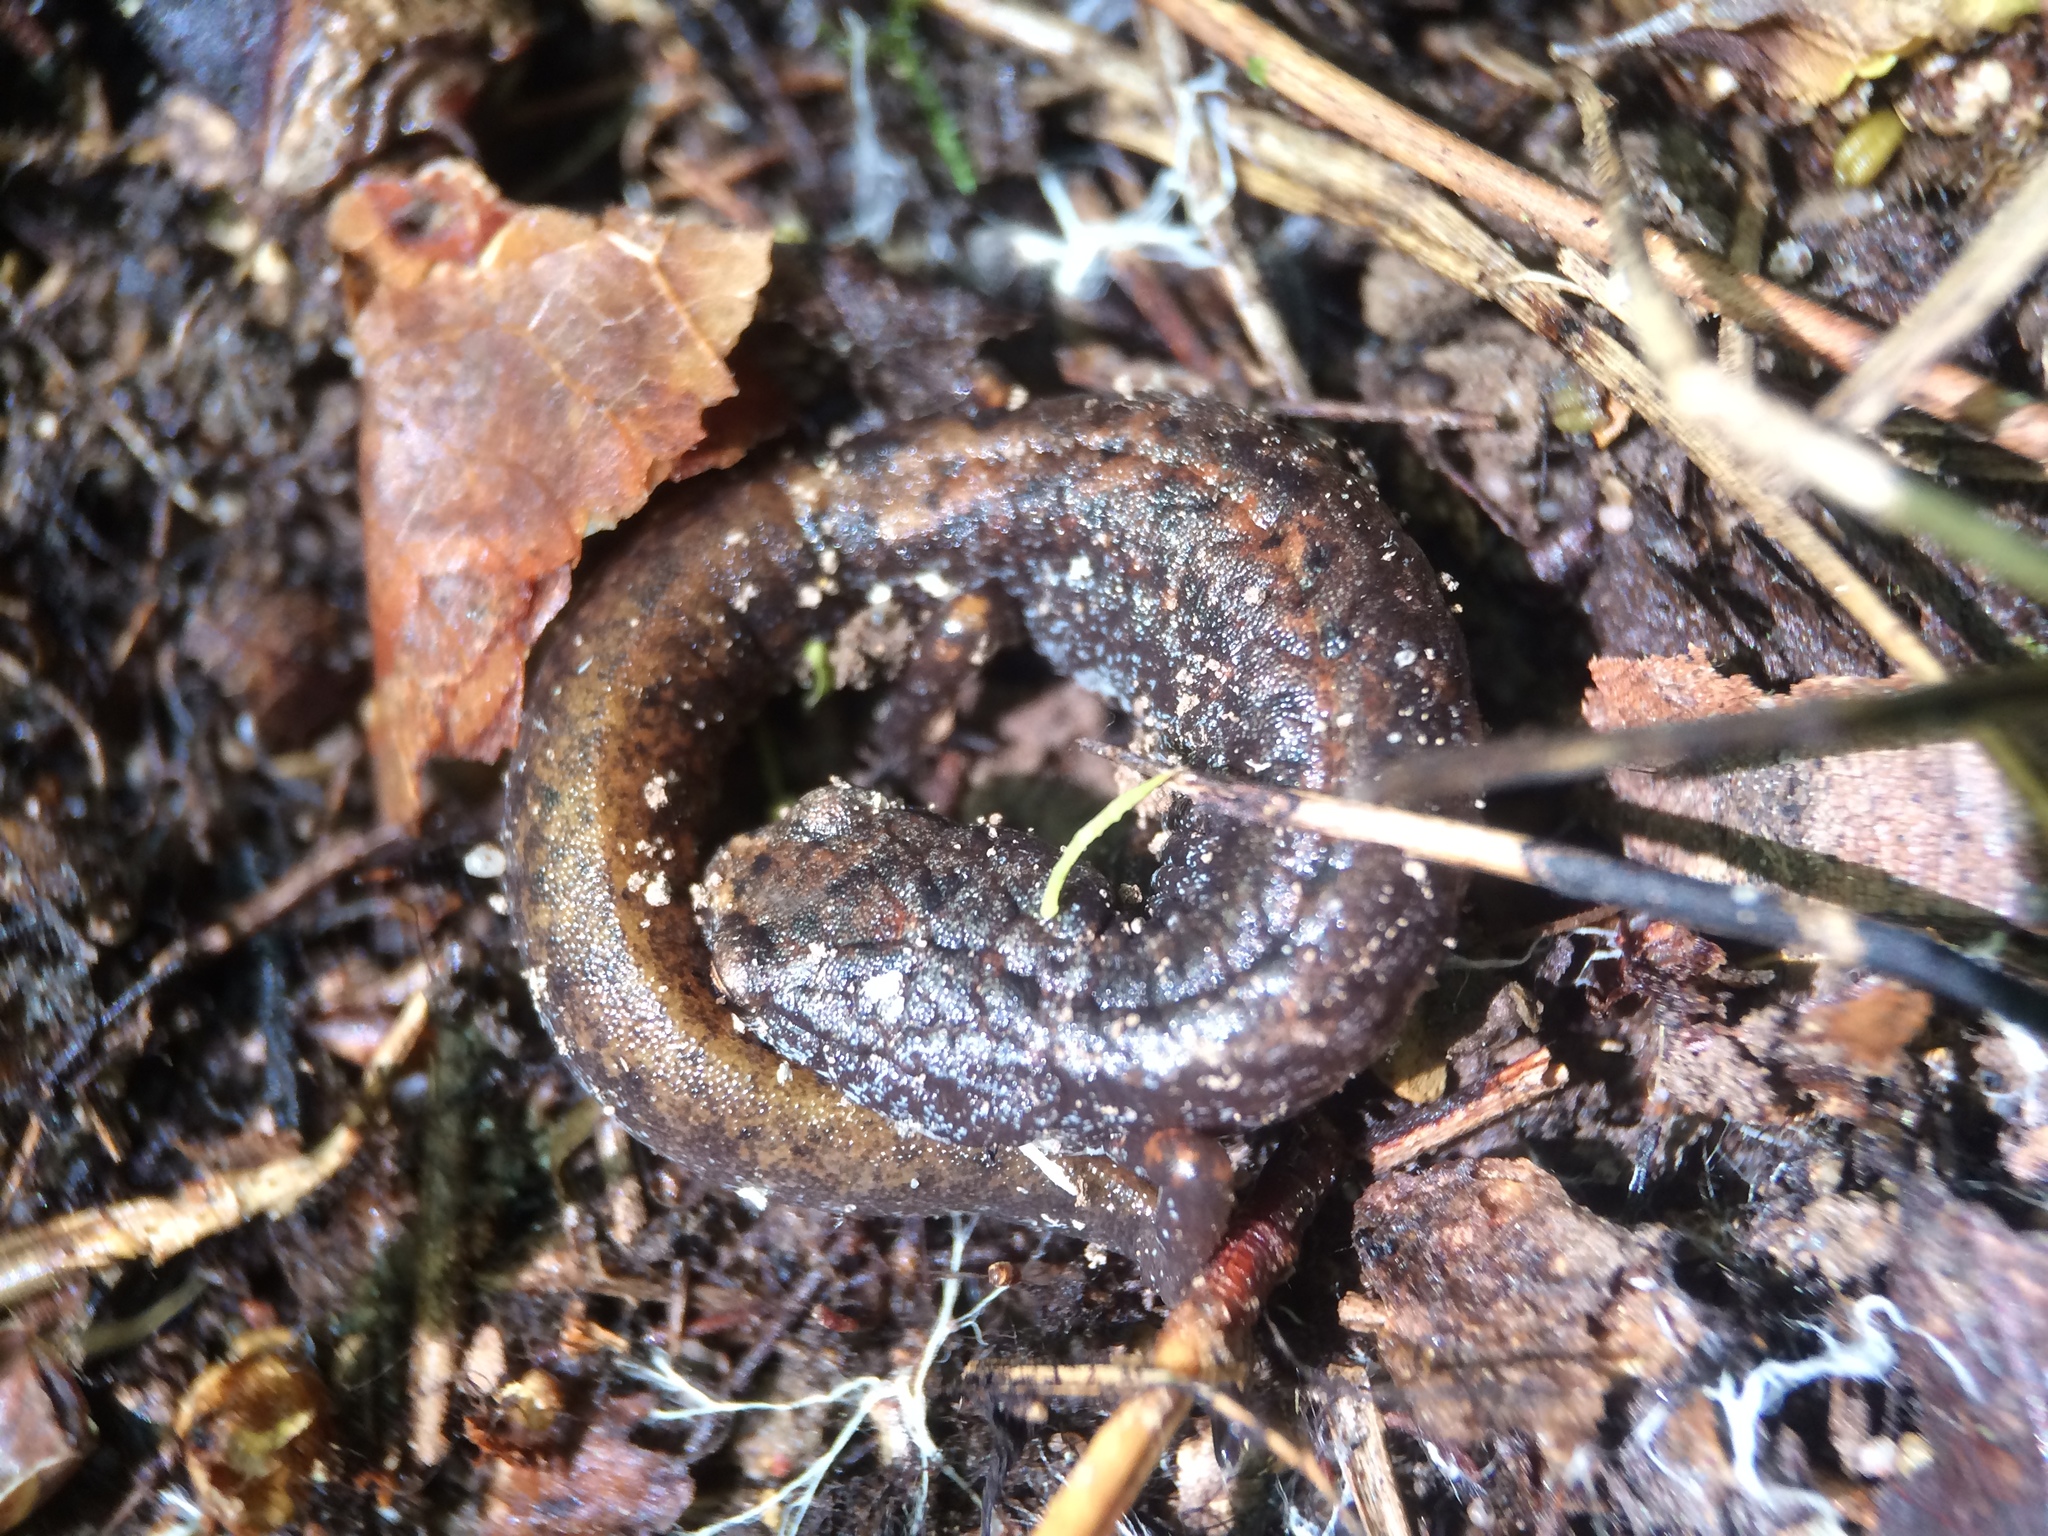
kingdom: Animalia
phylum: Chordata
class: Amphibia
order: Caudata
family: Plethodontidae
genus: Hemidactylium
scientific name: Hemidactylium scutatum
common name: Four-toed salamander
